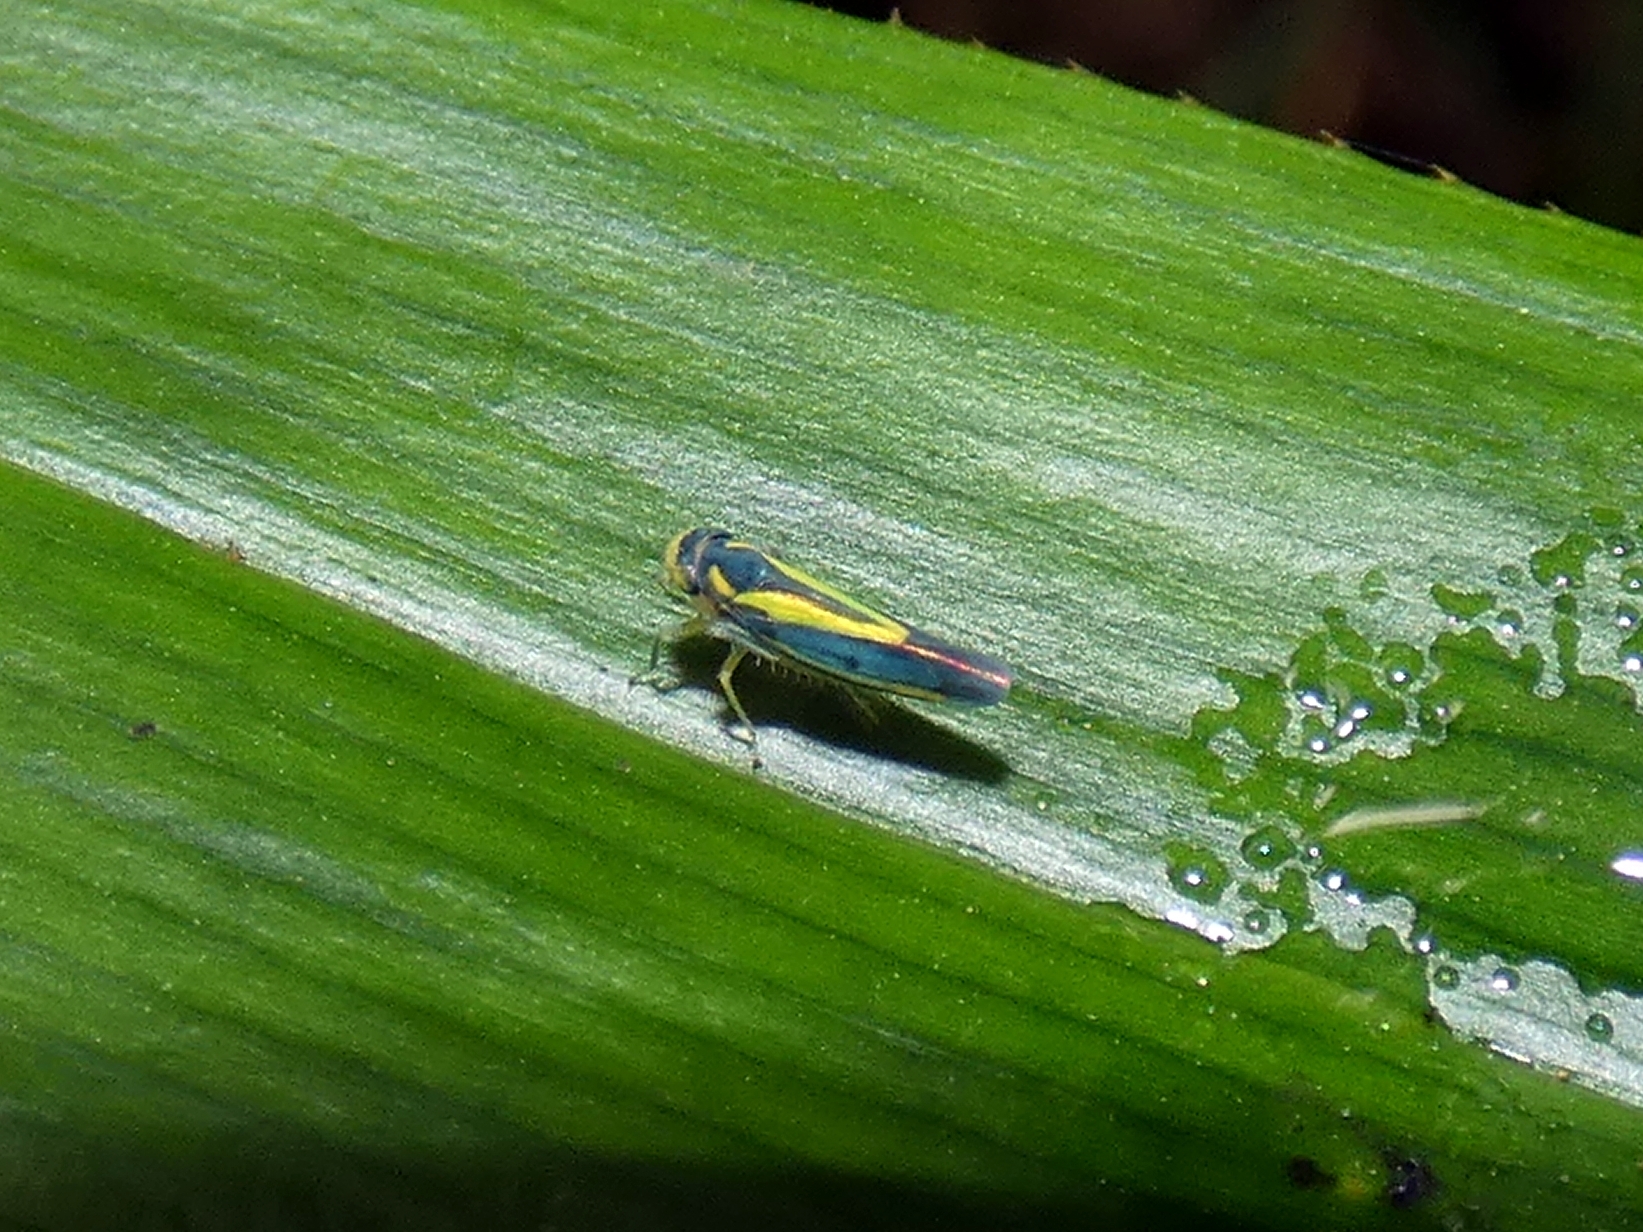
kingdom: Animalia
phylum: Arthropoda
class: Insecta
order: Hemiptera
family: Cicadellidae
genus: Ishidaella
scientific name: Ishidaella anemolua
